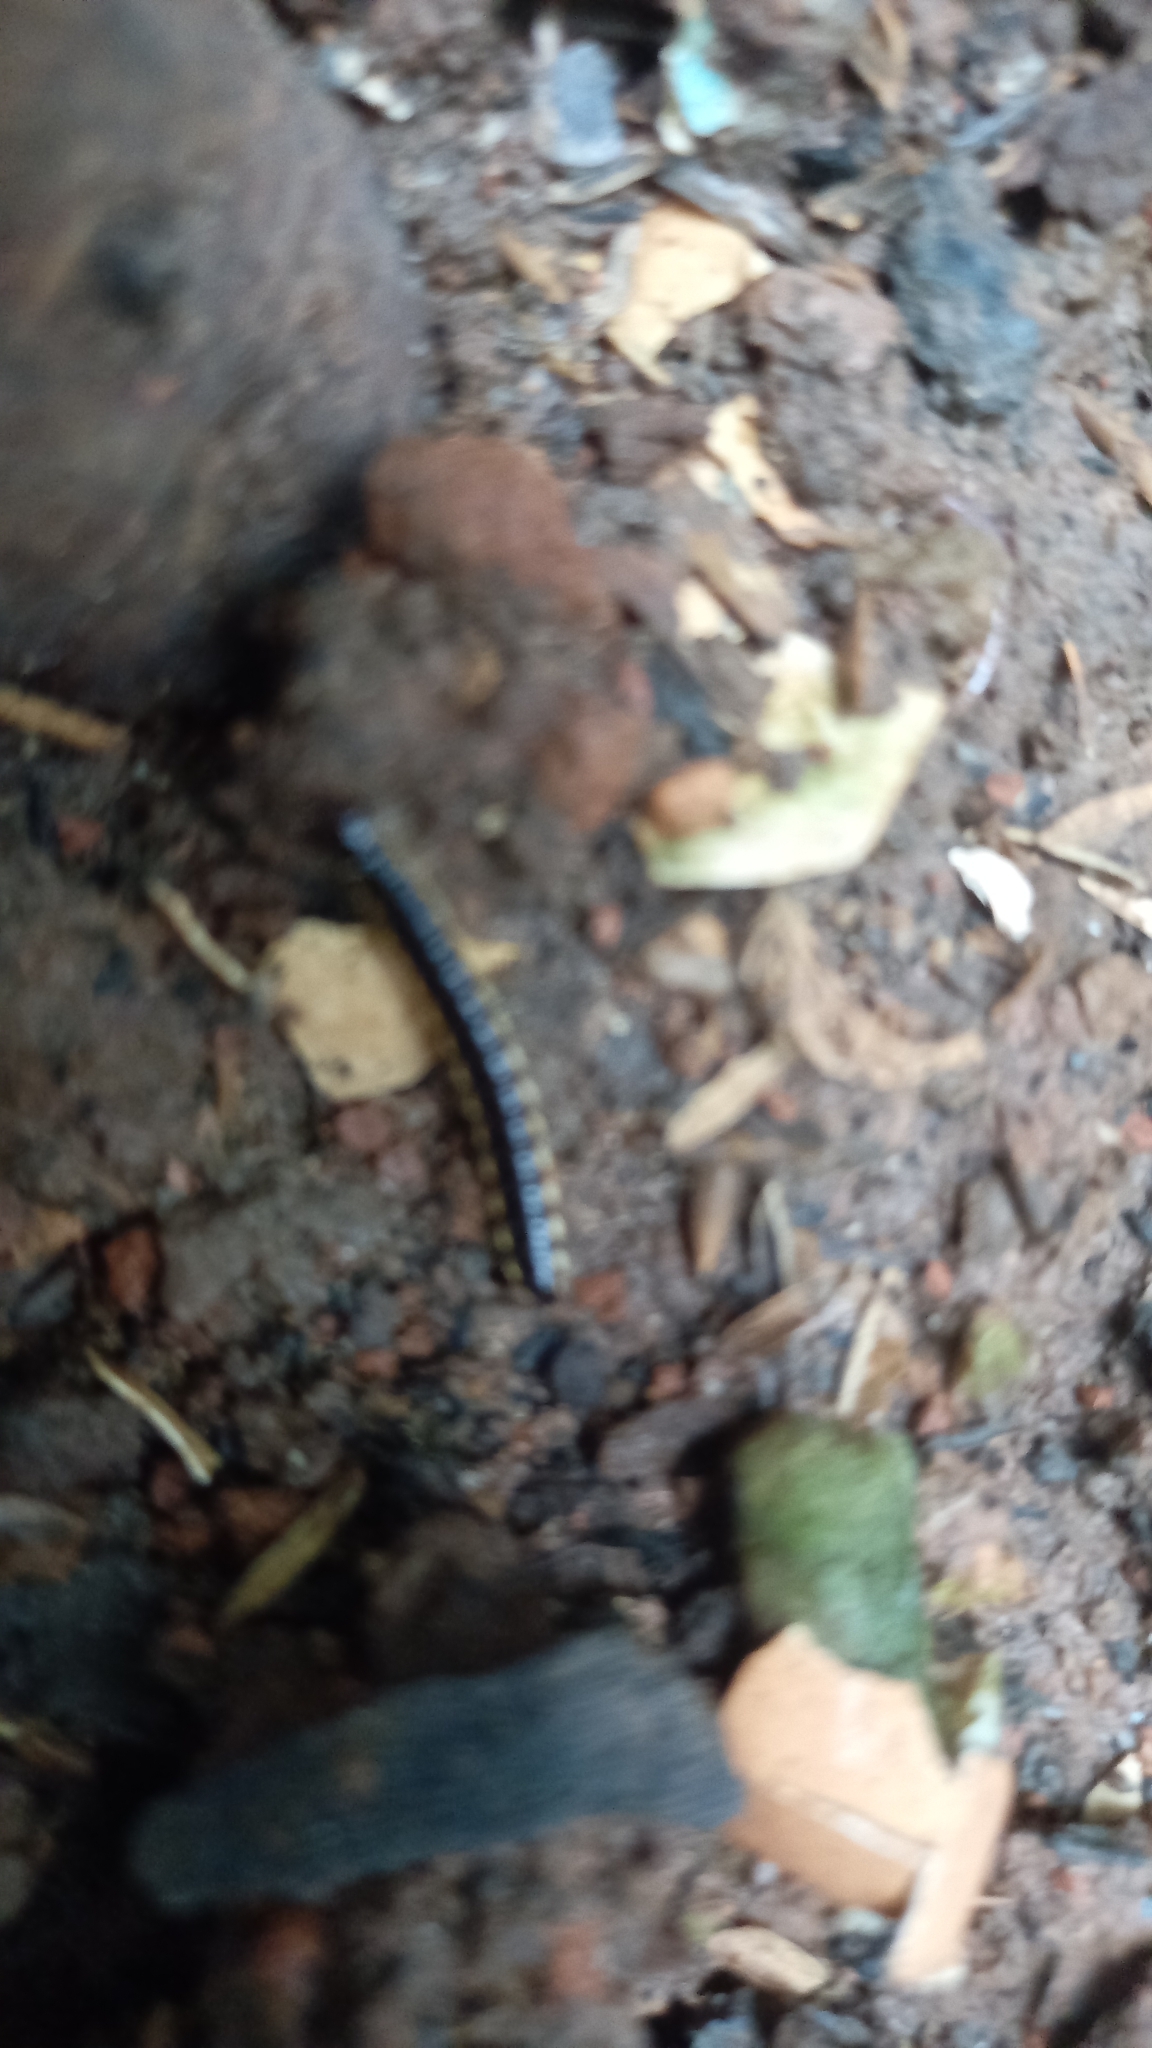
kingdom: Animalia
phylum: Arthropoda
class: Diplopoda
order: Polydesmida
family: Paradoxosomatidae
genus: Orthomorpha
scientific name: Orthomorpha coarctata
